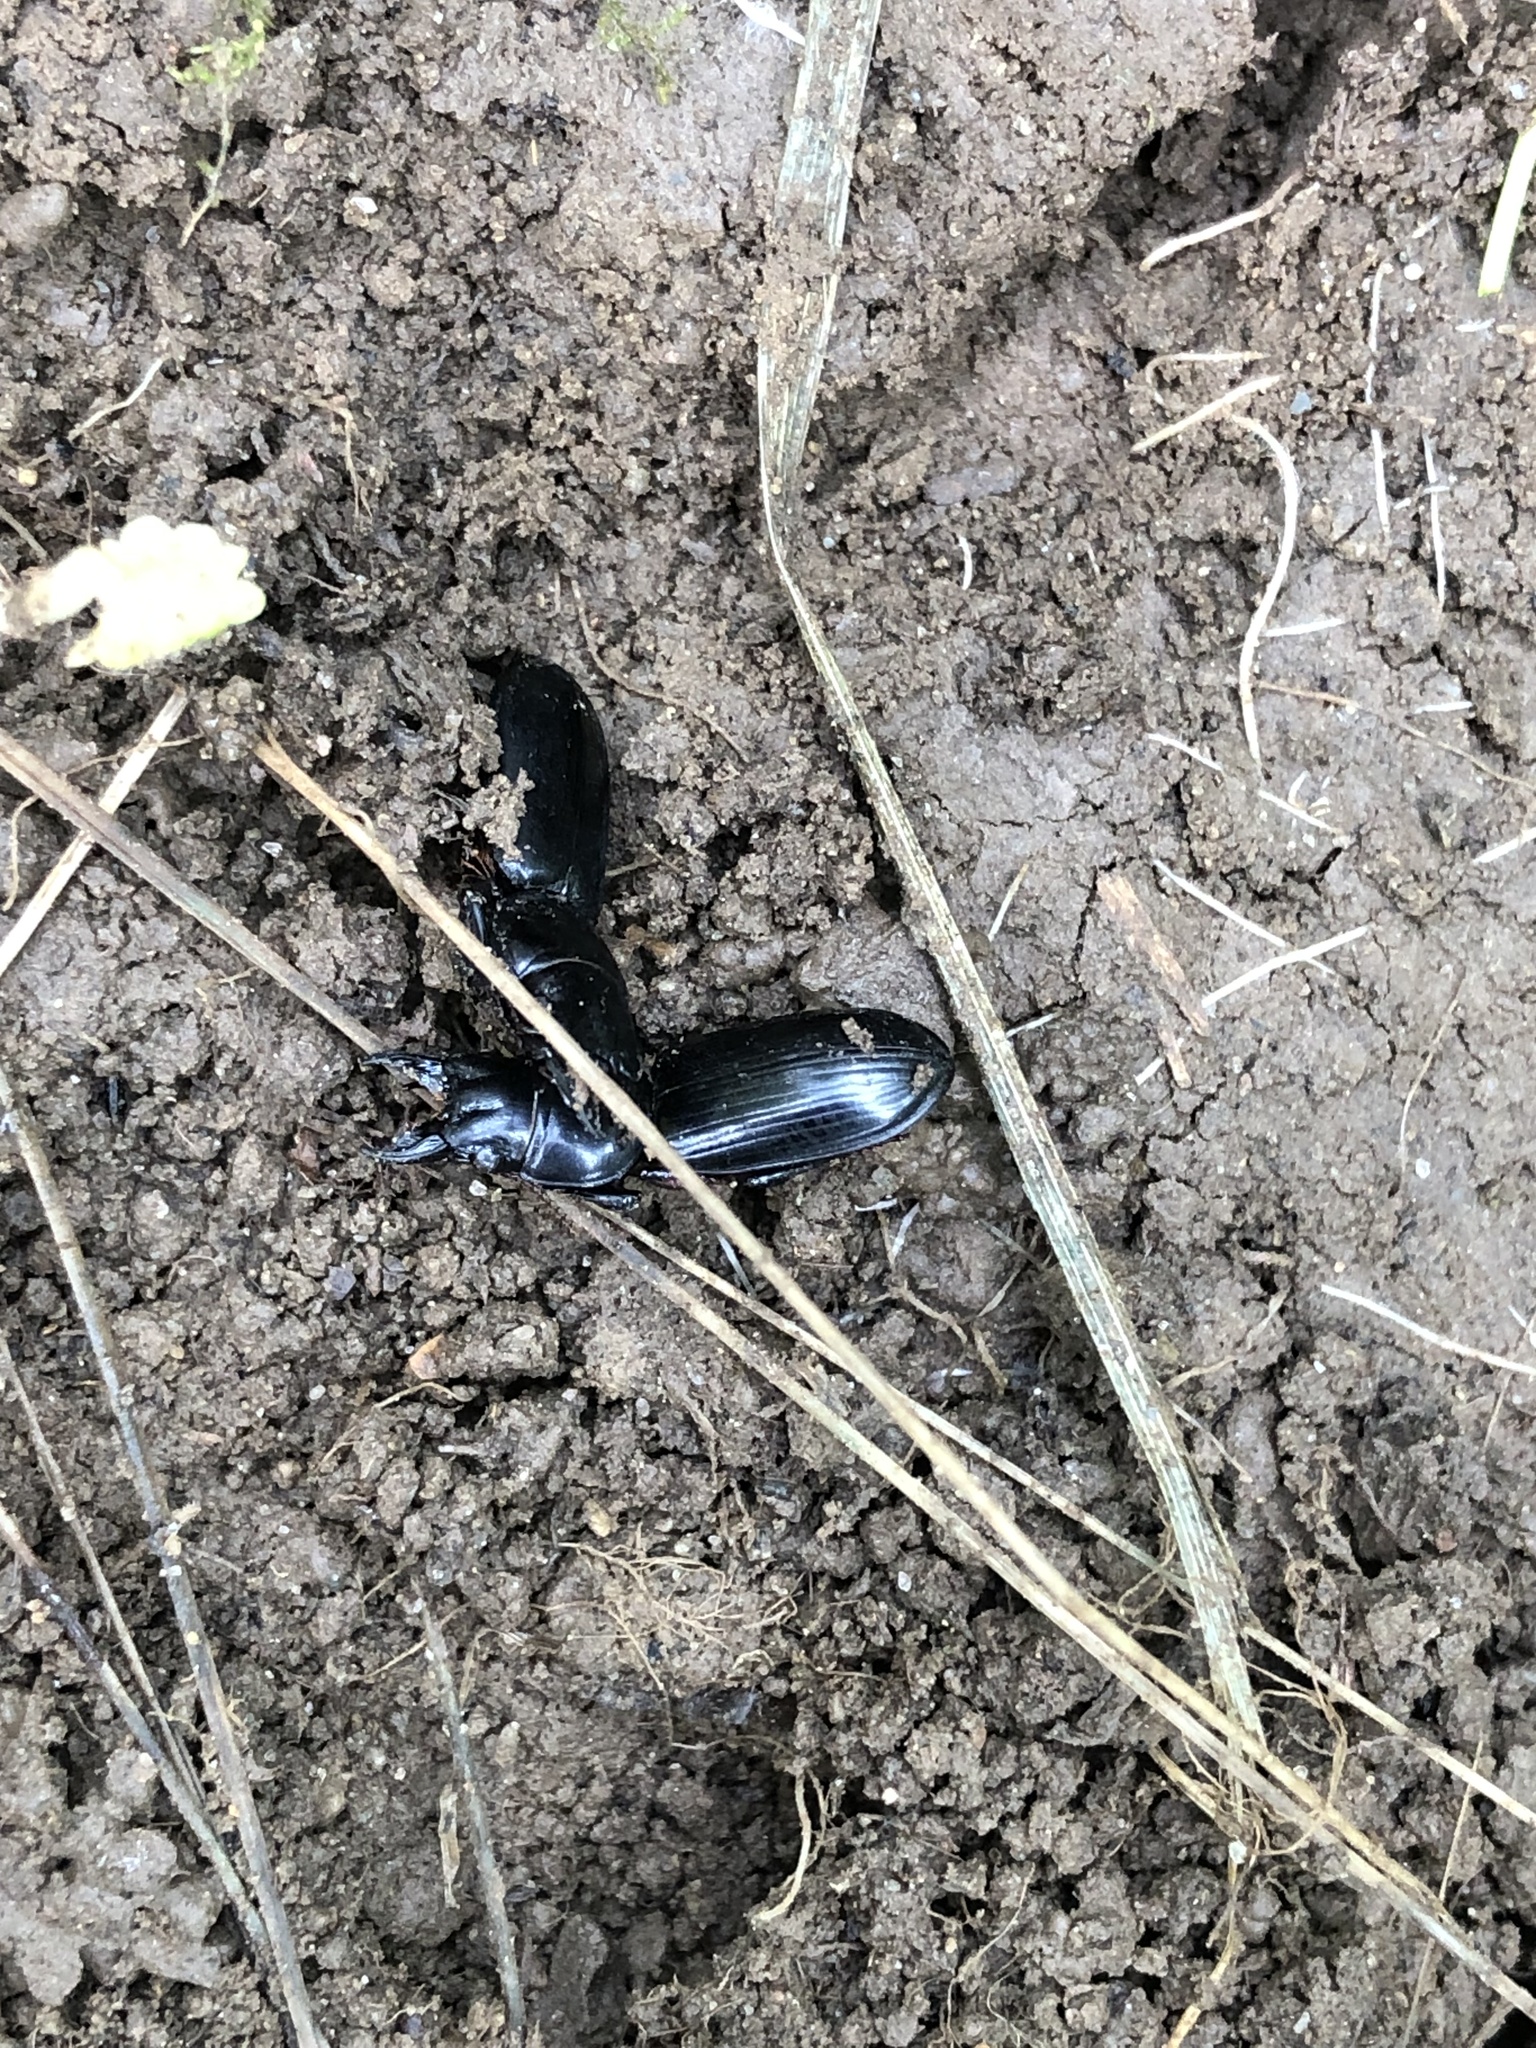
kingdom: Animalia
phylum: Arthropoda
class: Insecta
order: Coleoptera
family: Carabidae
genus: Scarites
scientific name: Scarites
